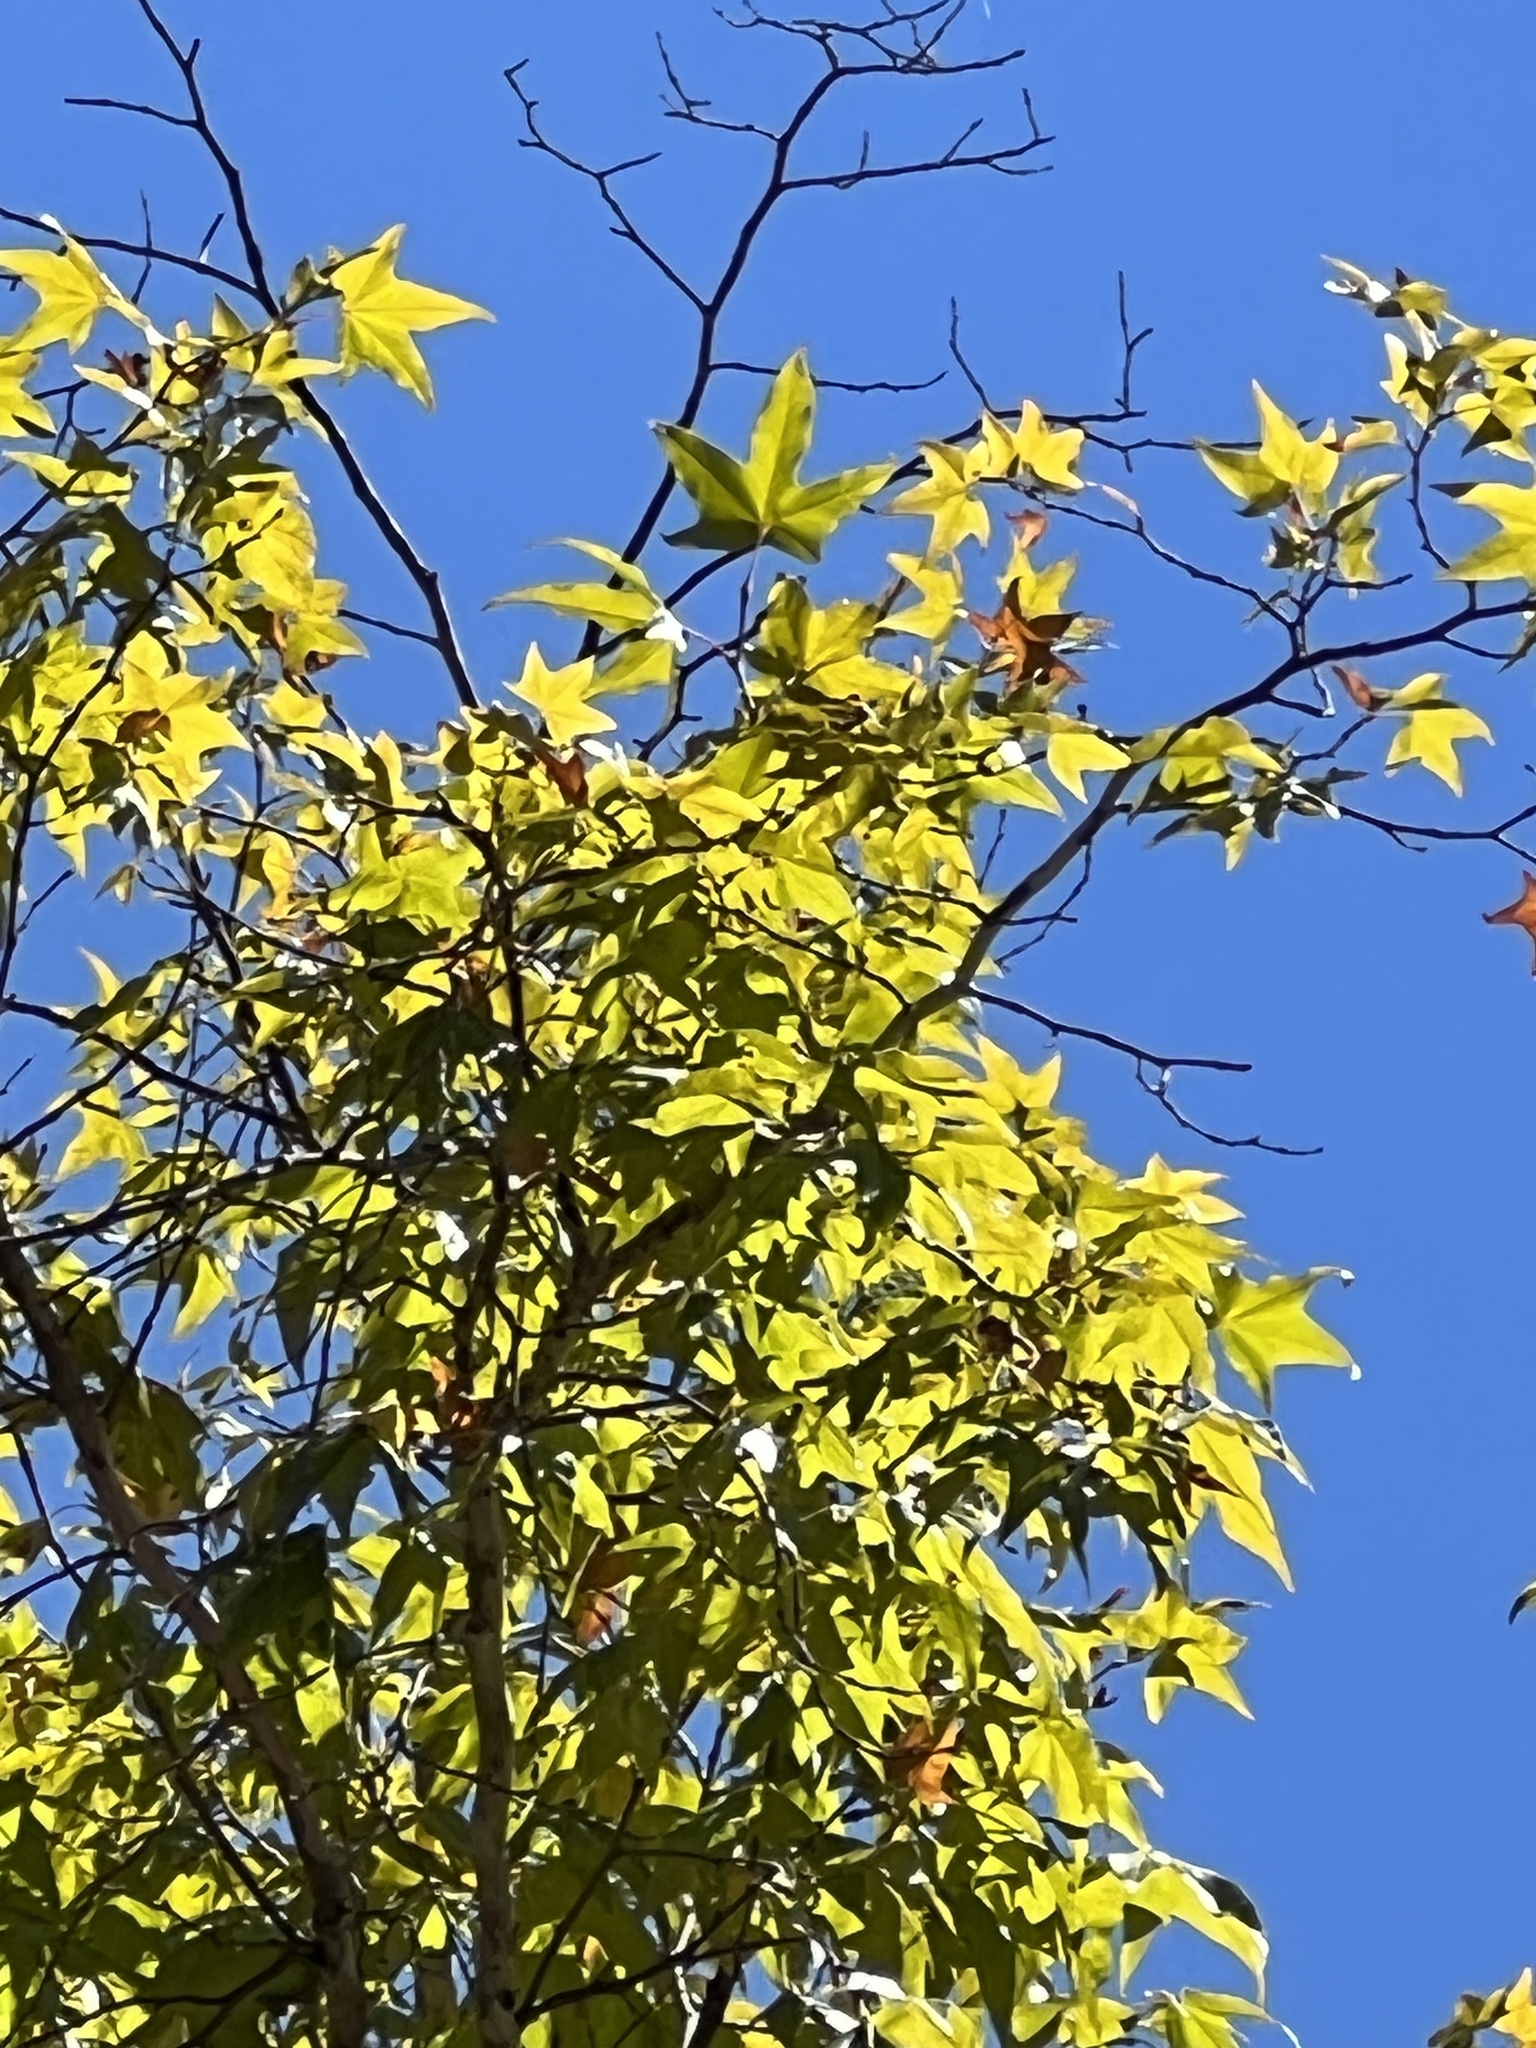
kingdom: Plantae
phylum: Tracheophyta
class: Magnoliopsida
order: Proteales
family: Platanaceae
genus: Platanus
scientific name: Platanus wrightii
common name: Arizona sycamore
